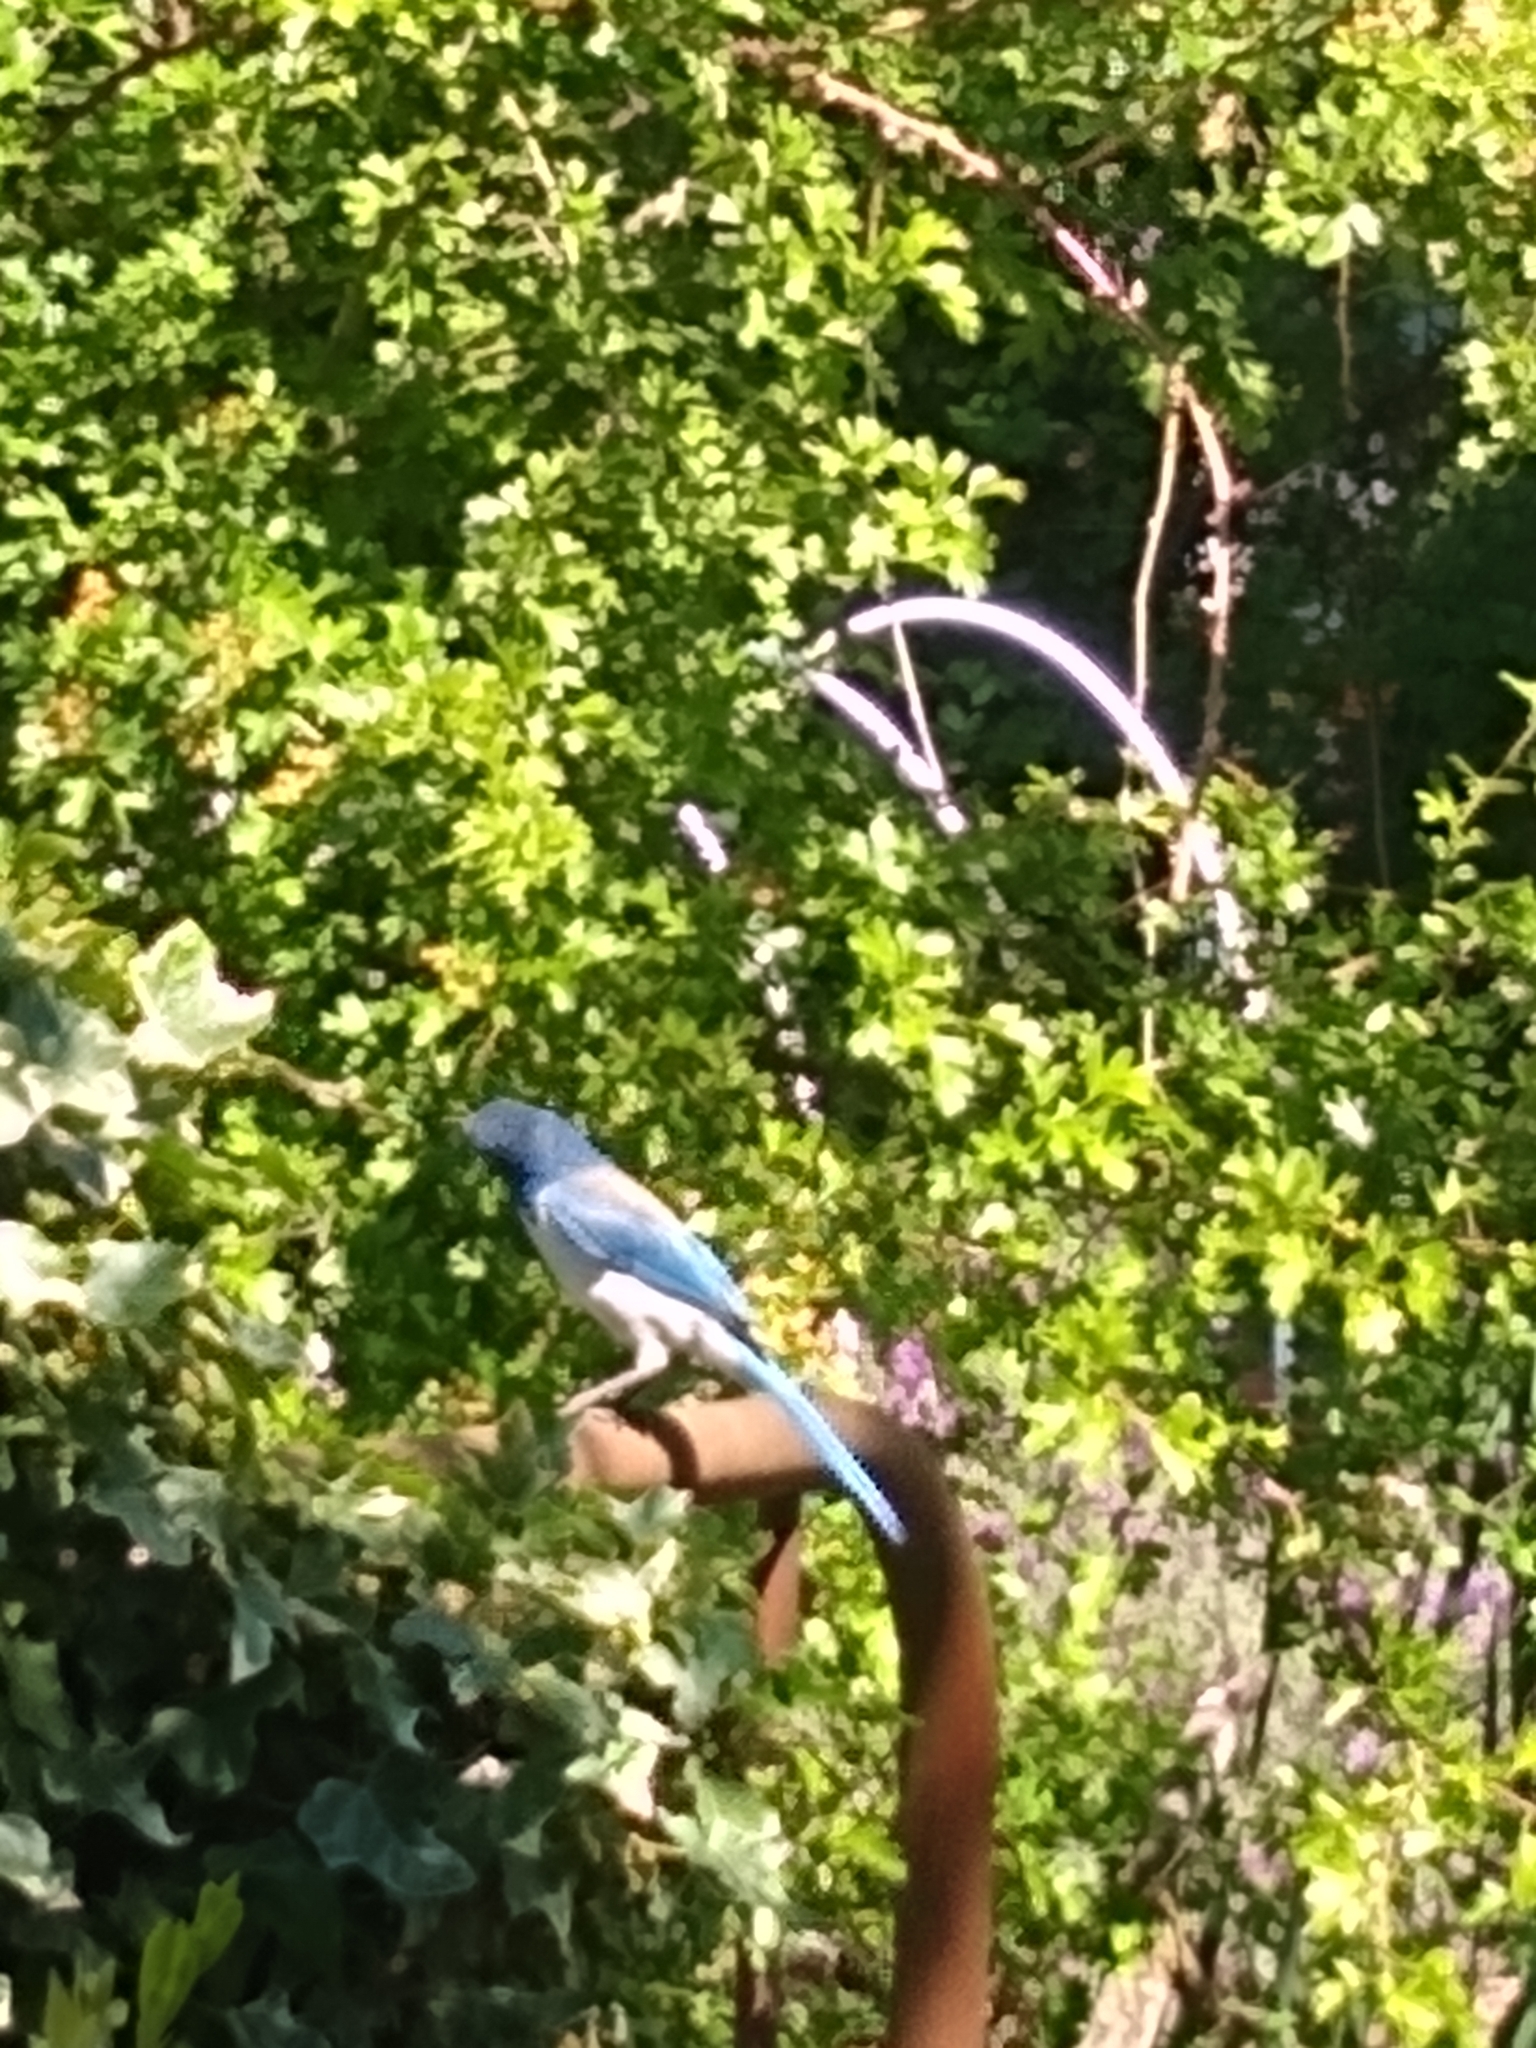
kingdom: Animalia
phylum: Chordata
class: Aves
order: Passeriformes
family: Corvidae
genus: Aphelocoma
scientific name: Aphelocoma californica
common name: California scrub-jay
